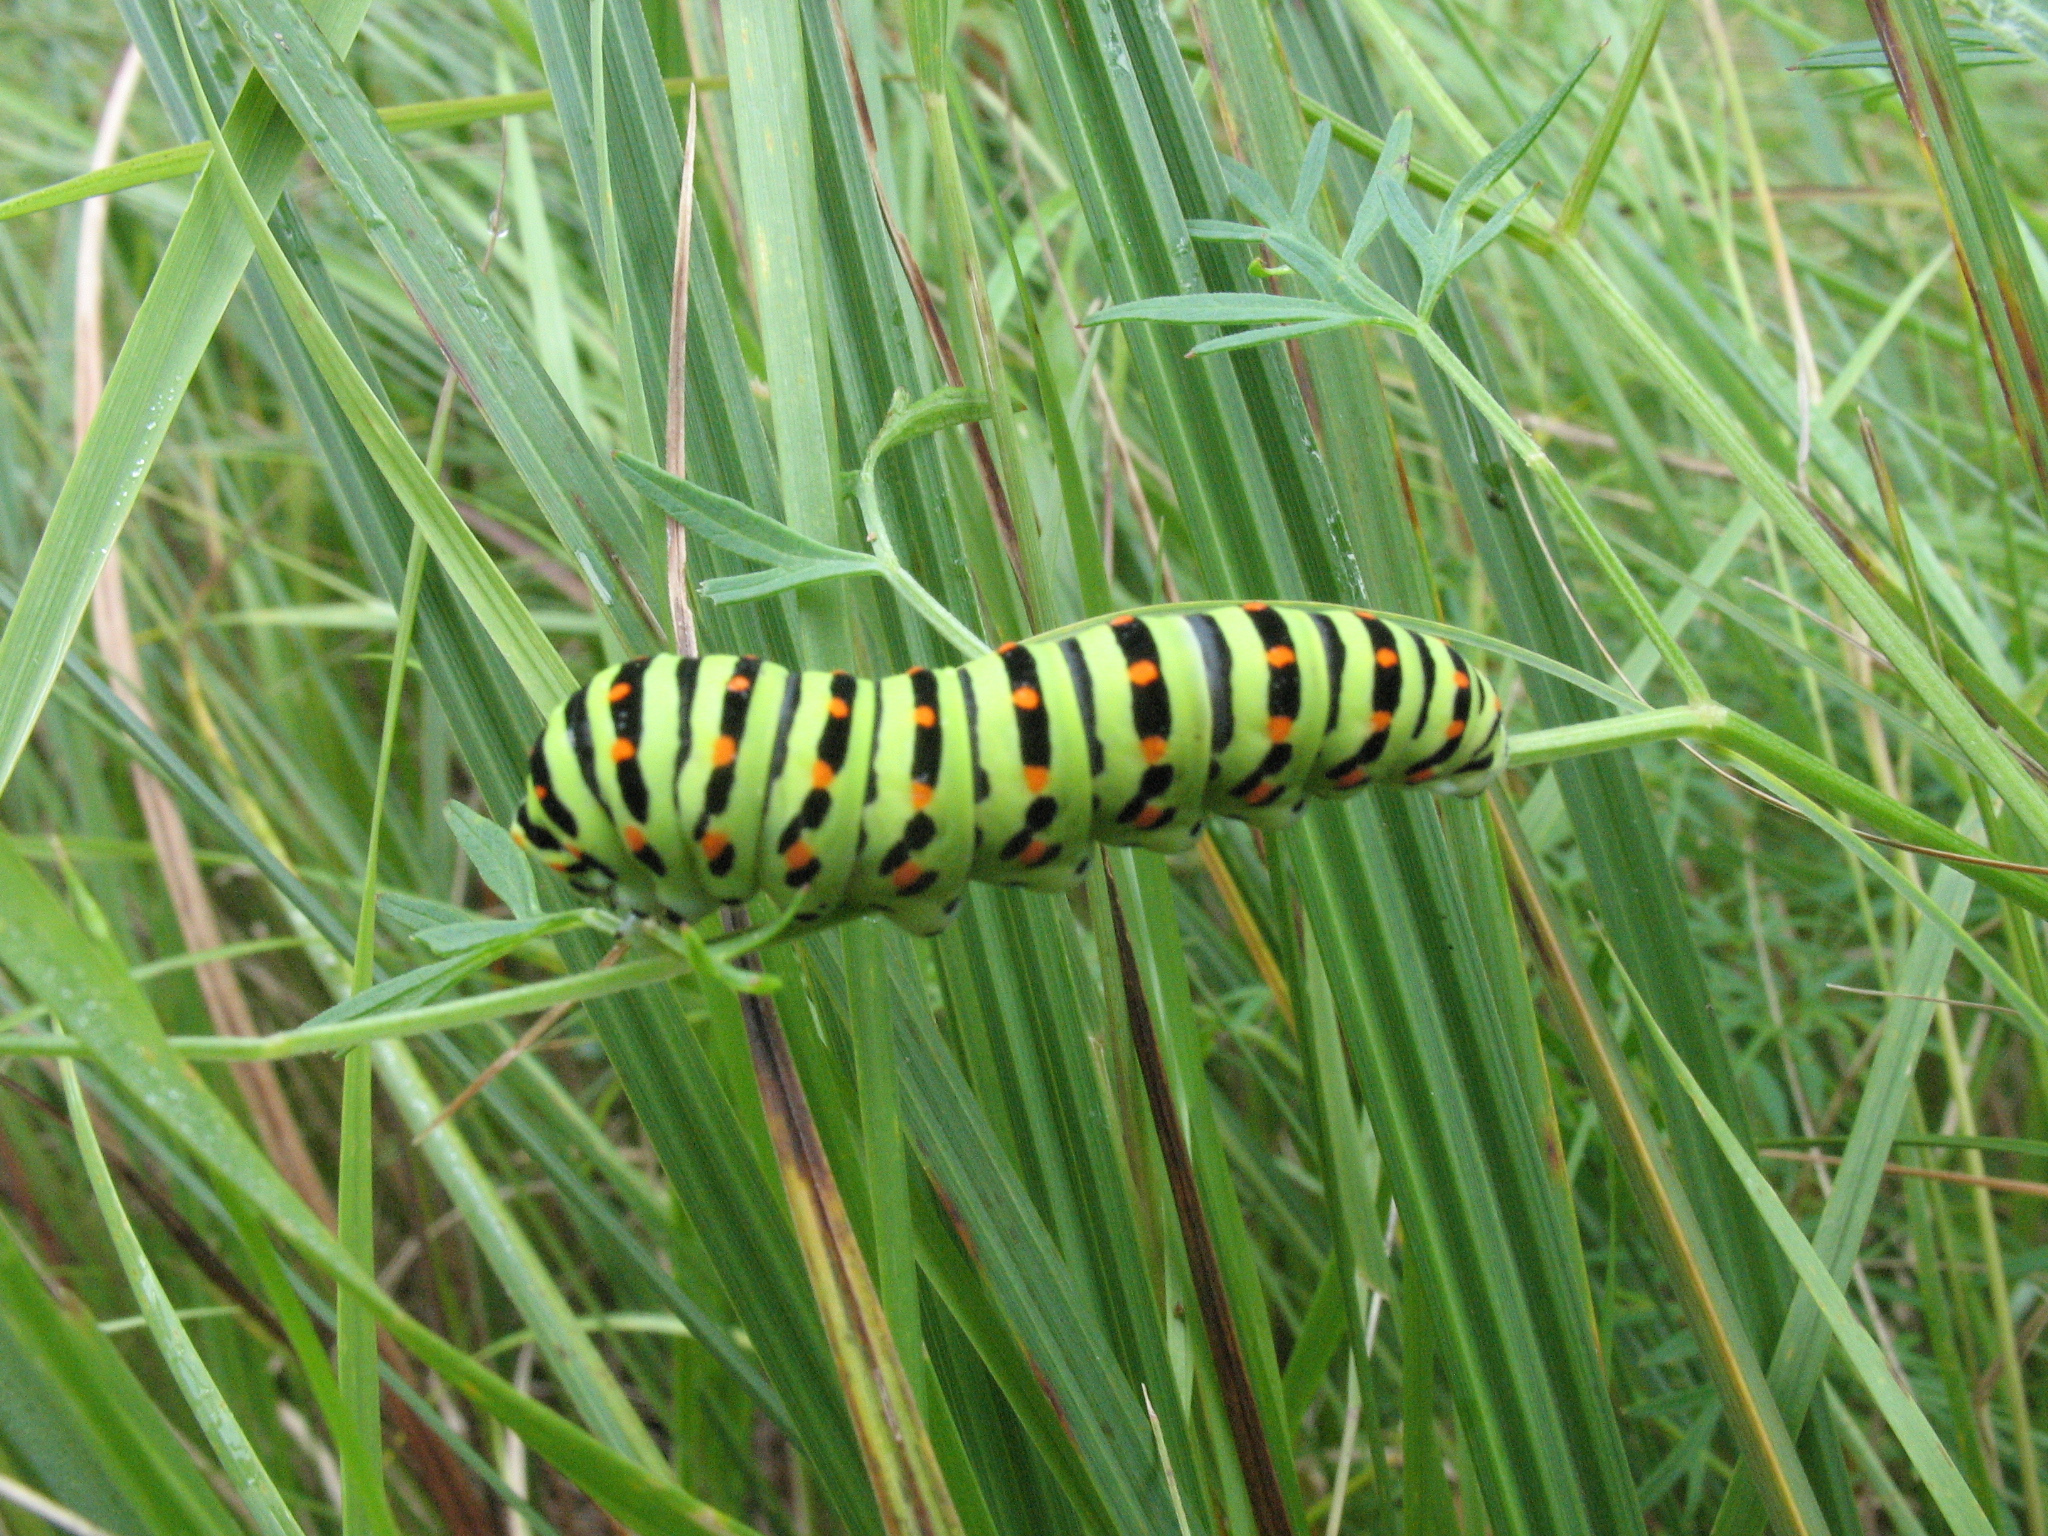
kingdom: Animalia
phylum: Arthropoda
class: Insecta
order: Lepidoptera
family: Papilionidae
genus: Papilio
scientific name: Papilio machaon
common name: Swallowtail
